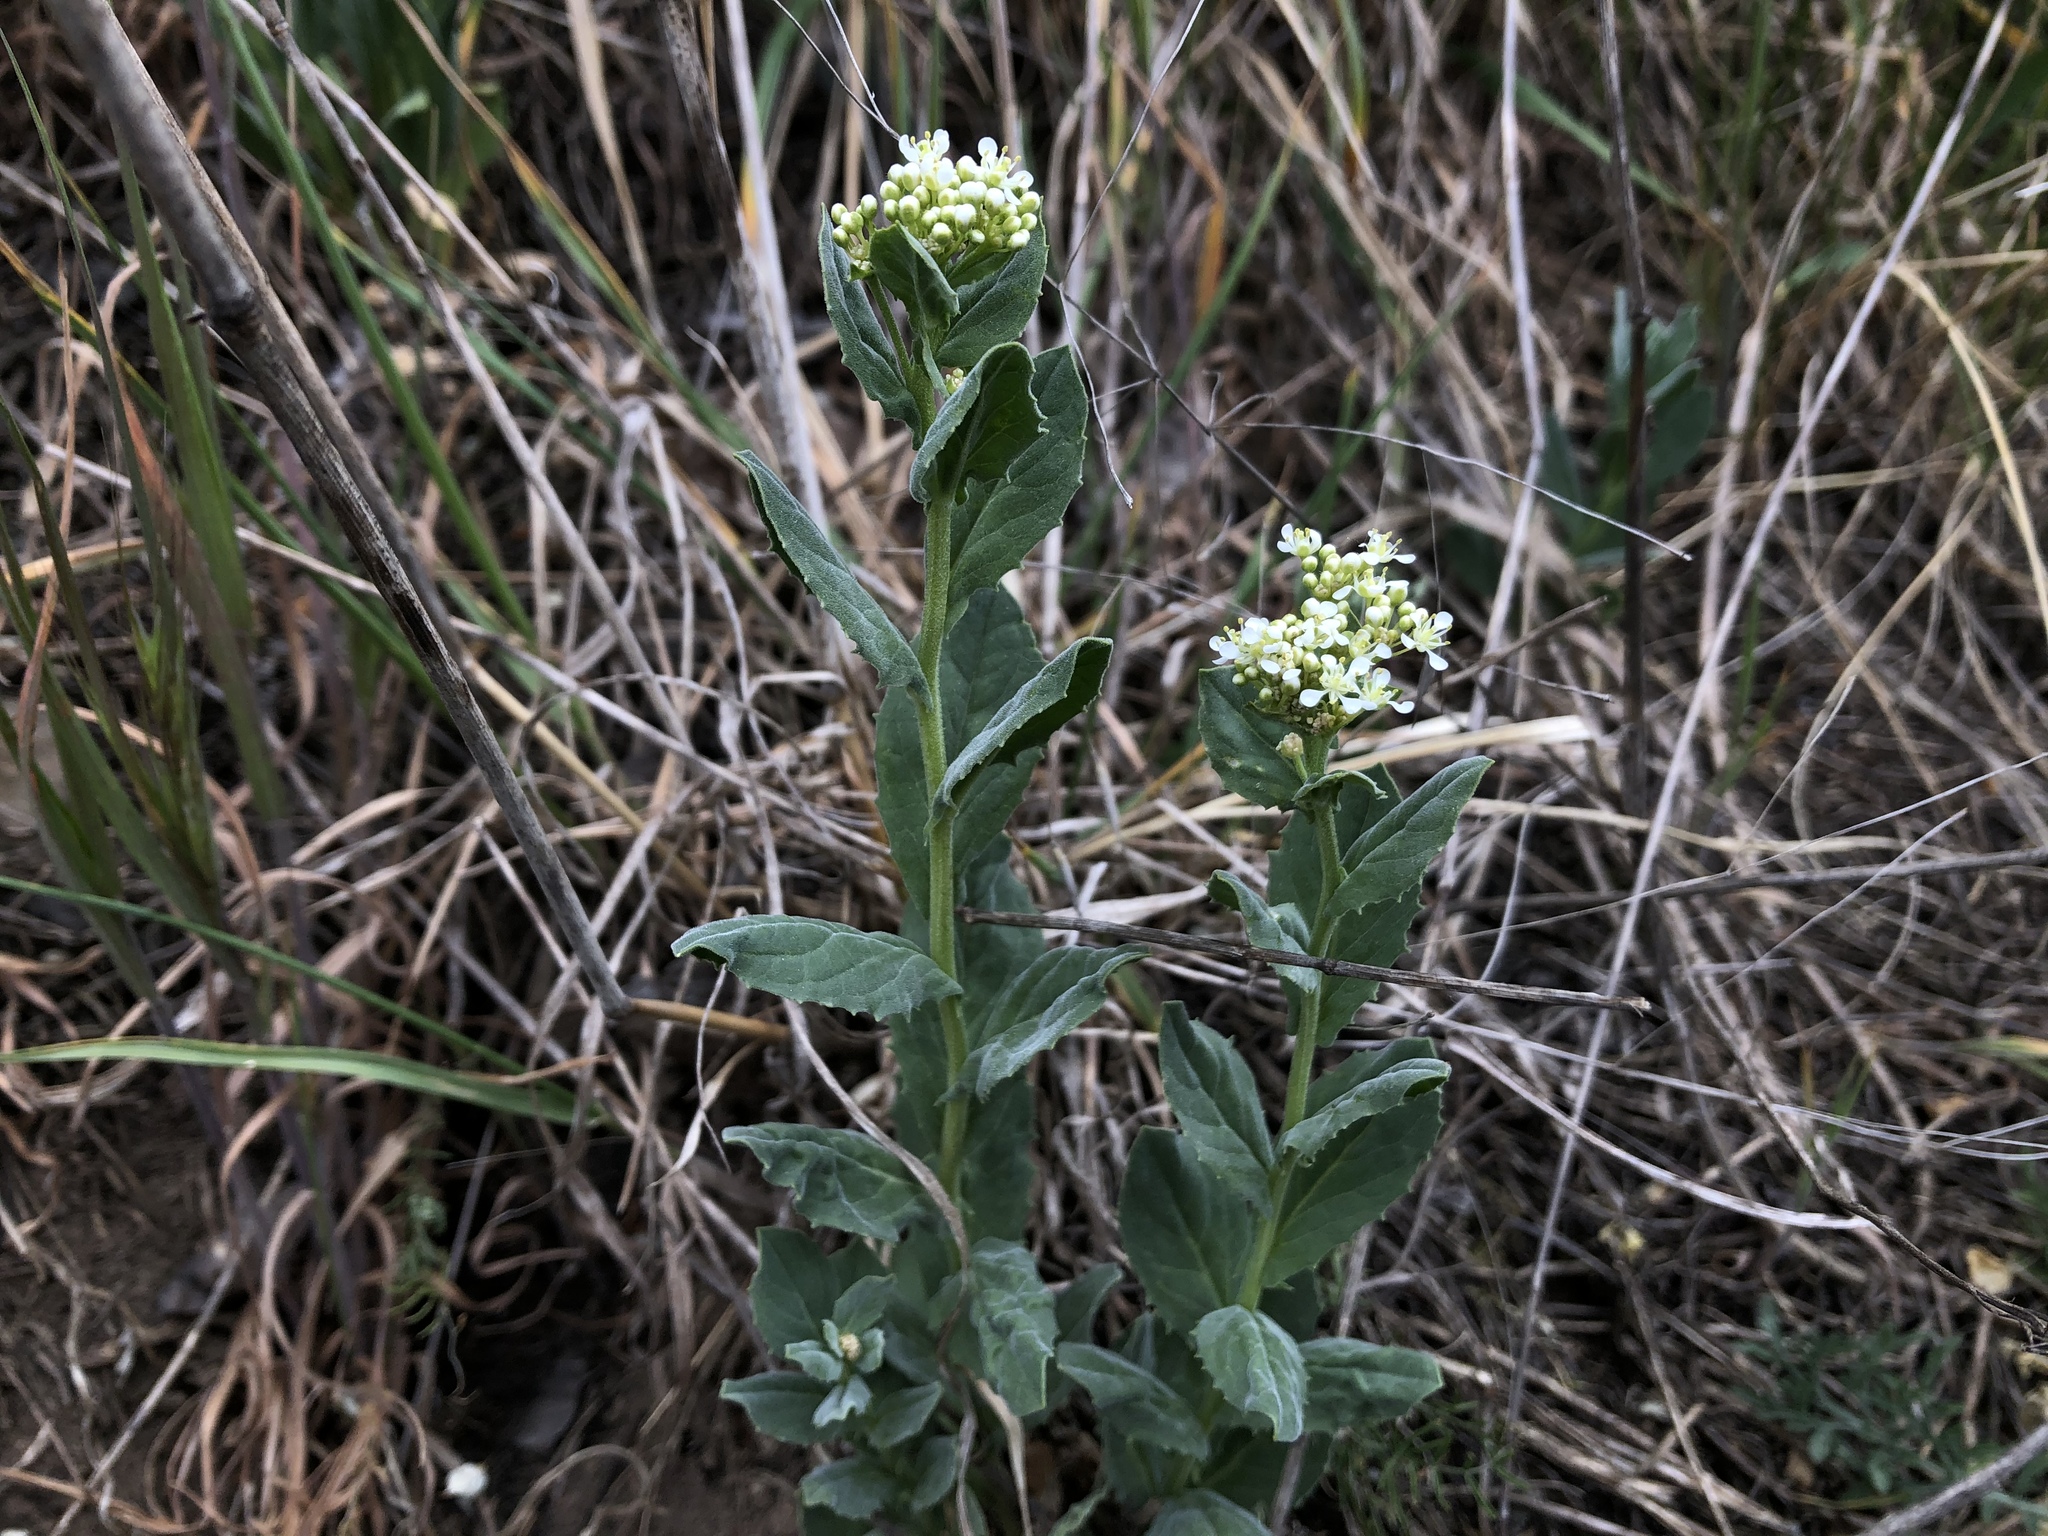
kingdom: Plantae
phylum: Tracheophyta
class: Magnoliopsida
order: Brassicales
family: Brassicaceae
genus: Lepidium
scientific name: Lepidium draba
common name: Hoary cress
